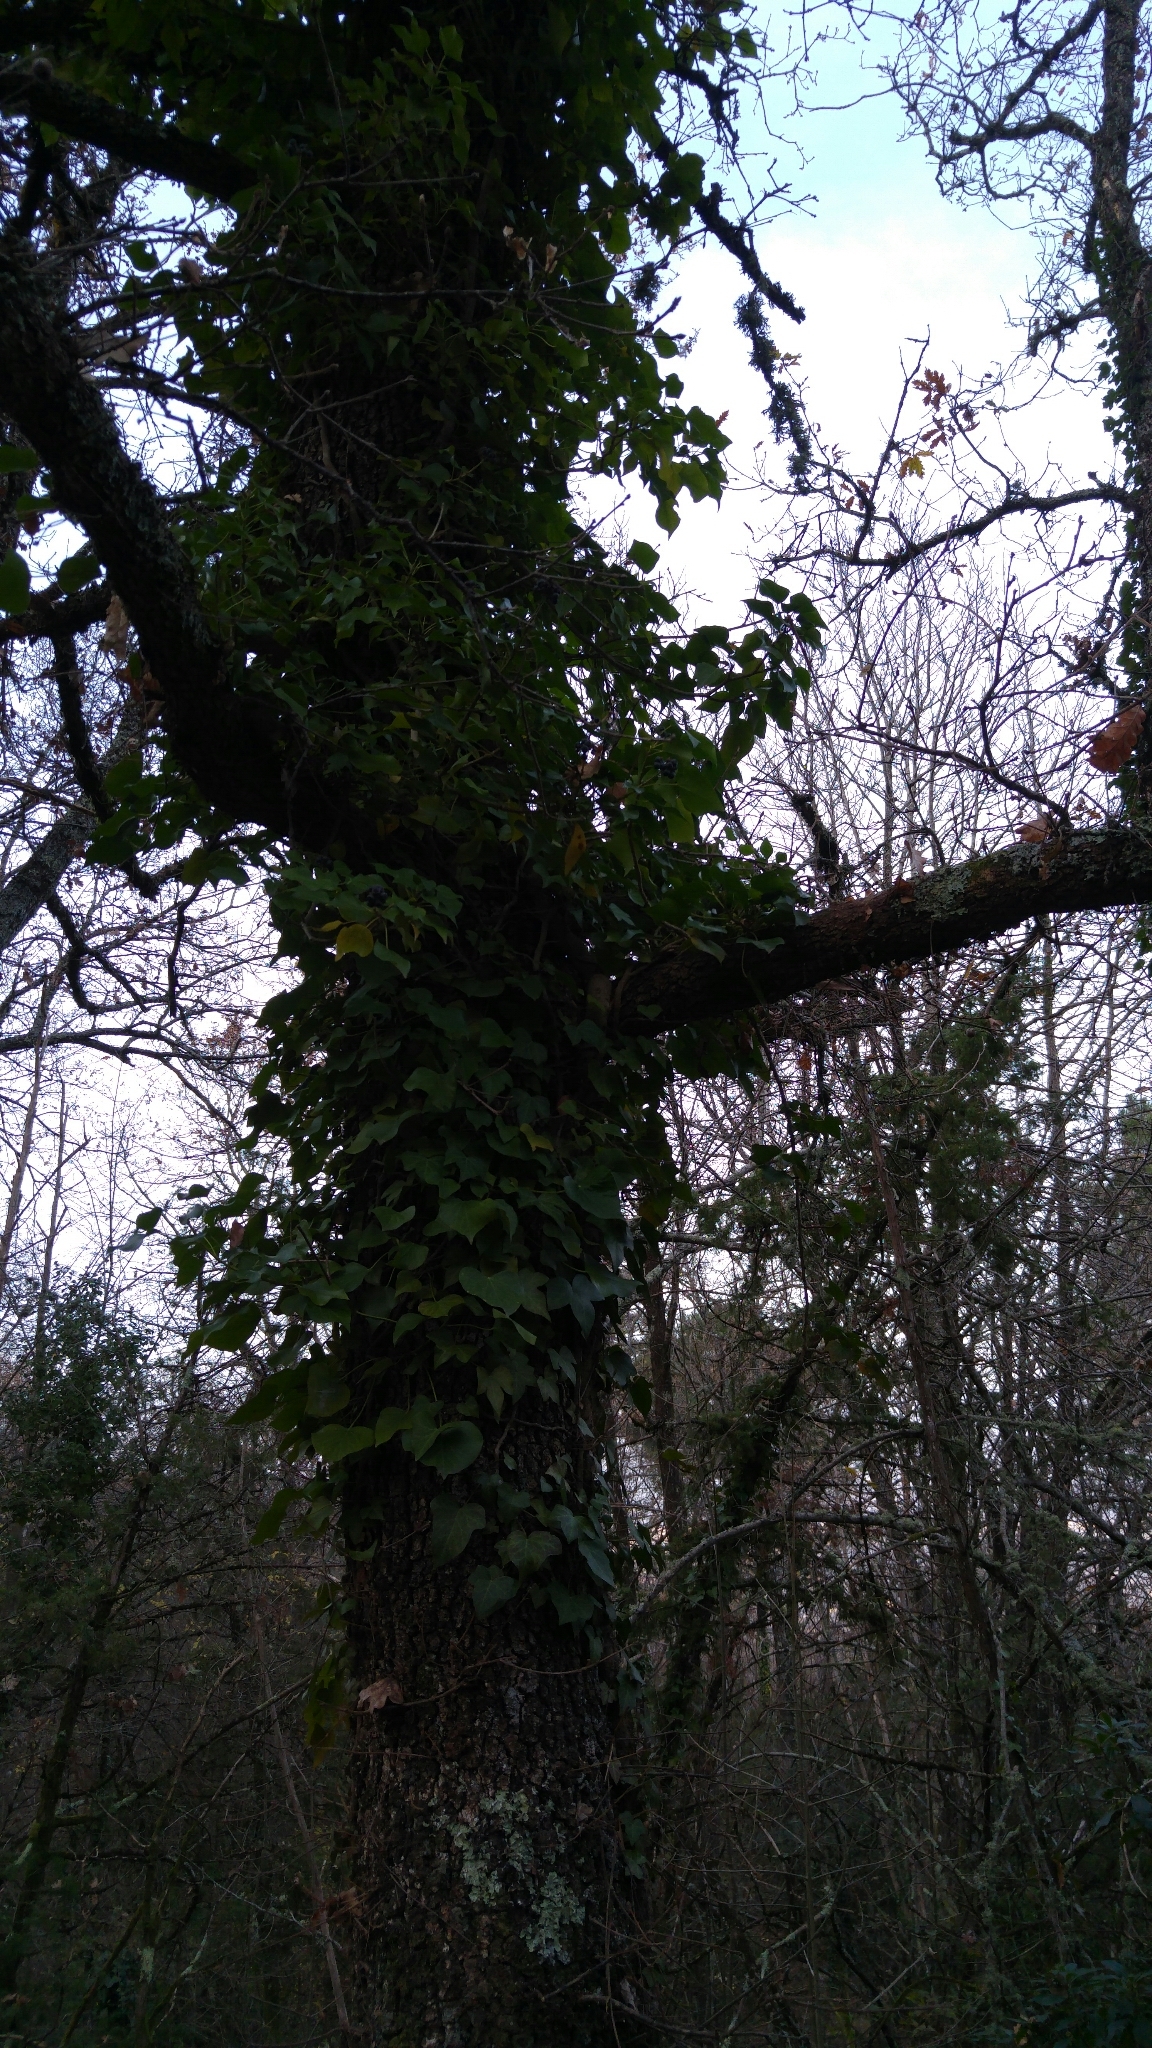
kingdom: Plantae
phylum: Tracheophyta
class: Magnoliopsida
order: Apiales
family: Araliaceae
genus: Hedera
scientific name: Hedera helix
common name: Ivy
